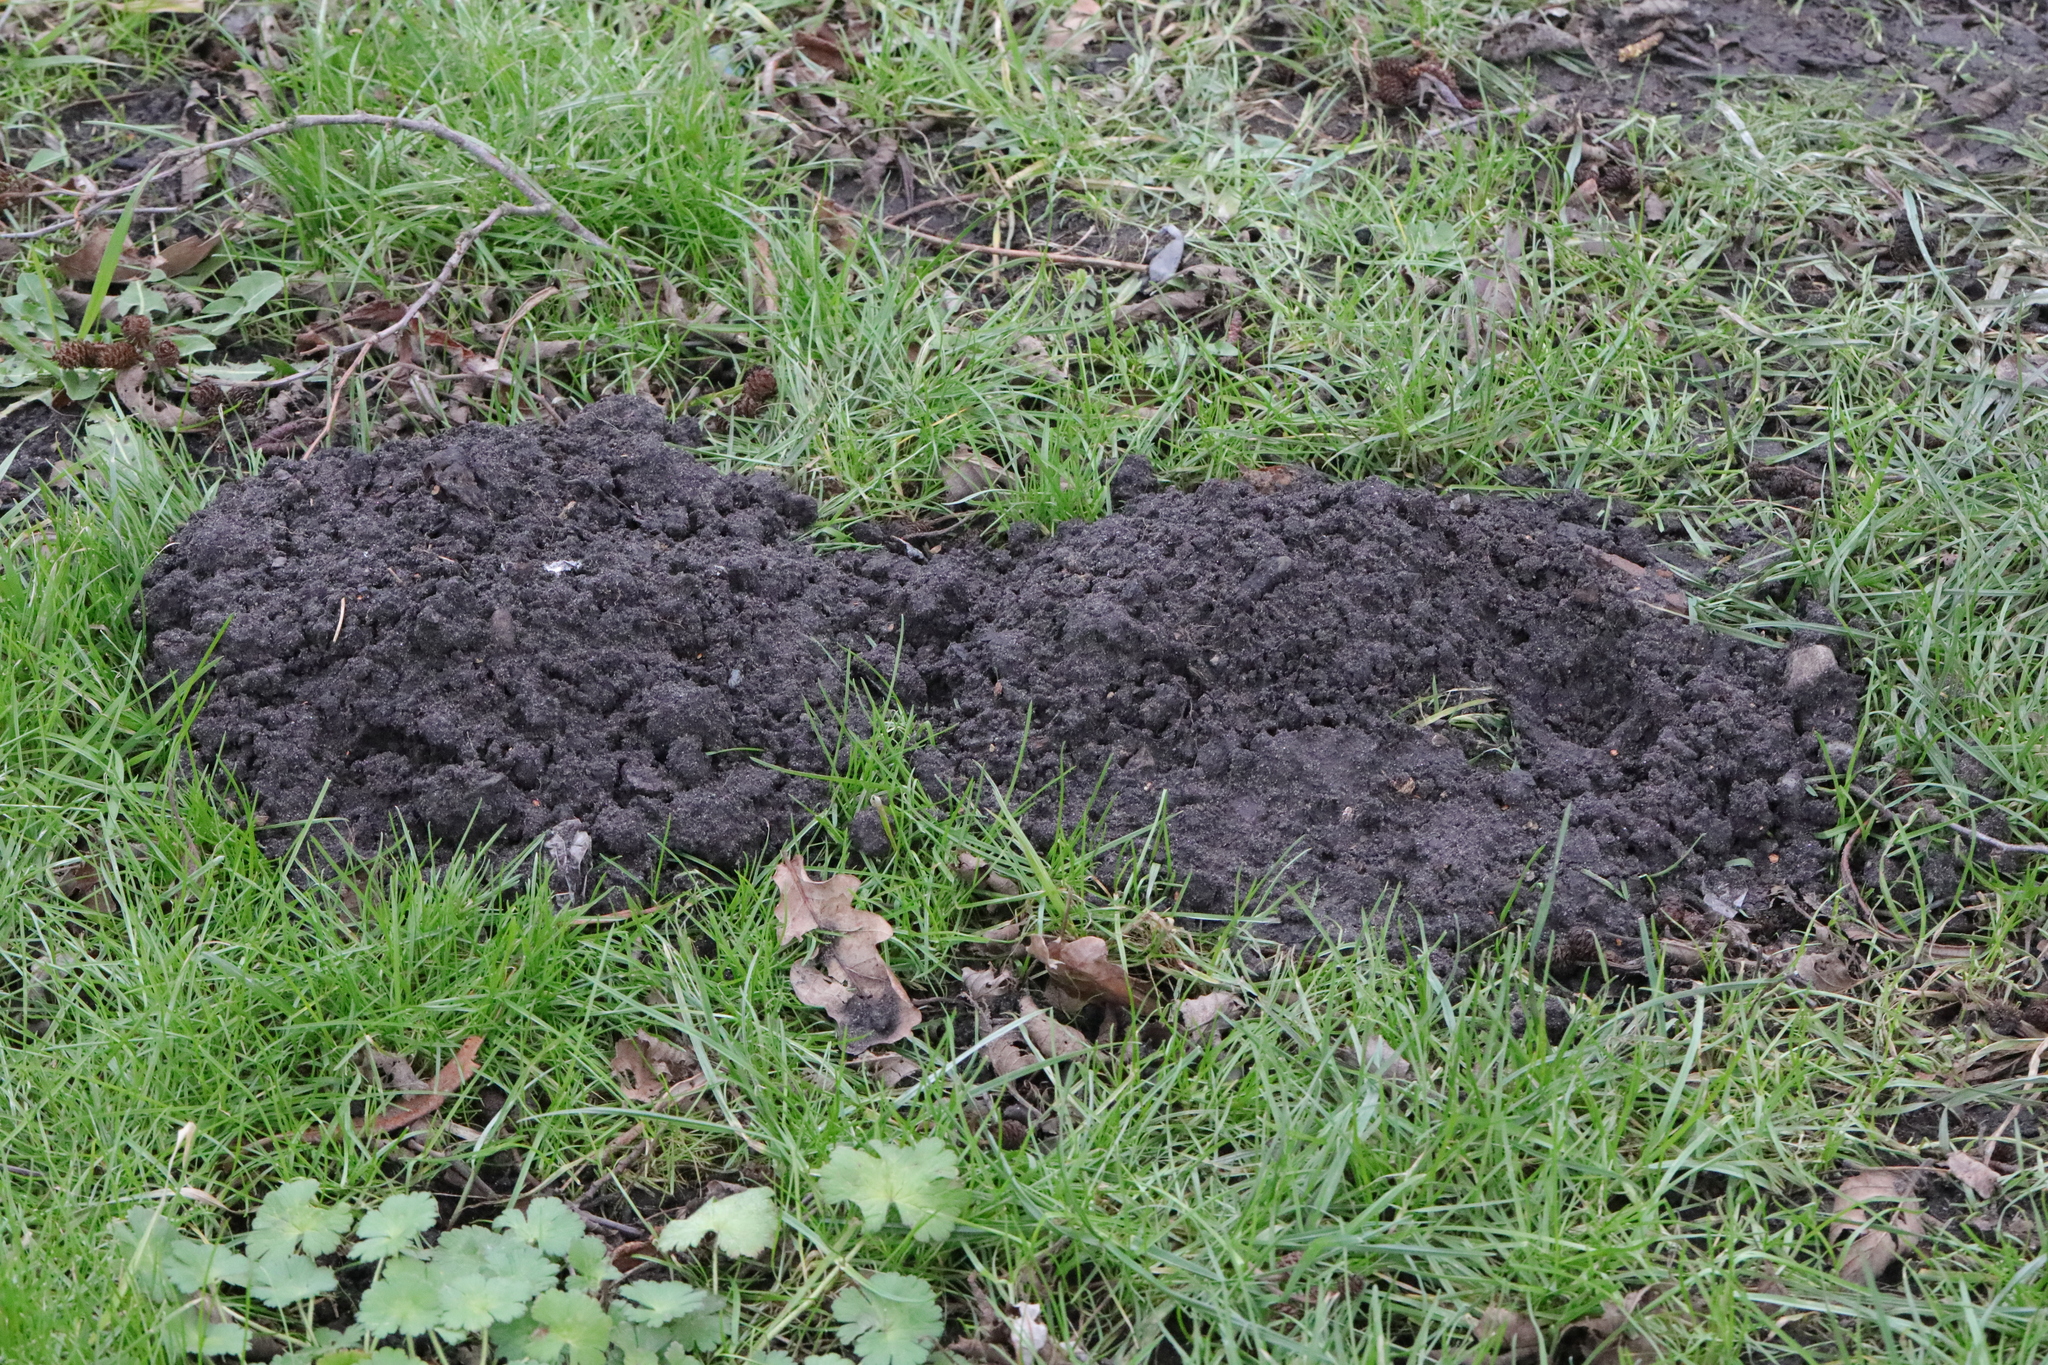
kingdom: Animalia
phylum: Chordata
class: Mammalia
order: Soricomorpha
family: Talpidae
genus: Talpa
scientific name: Talpa europaea
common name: European mole
